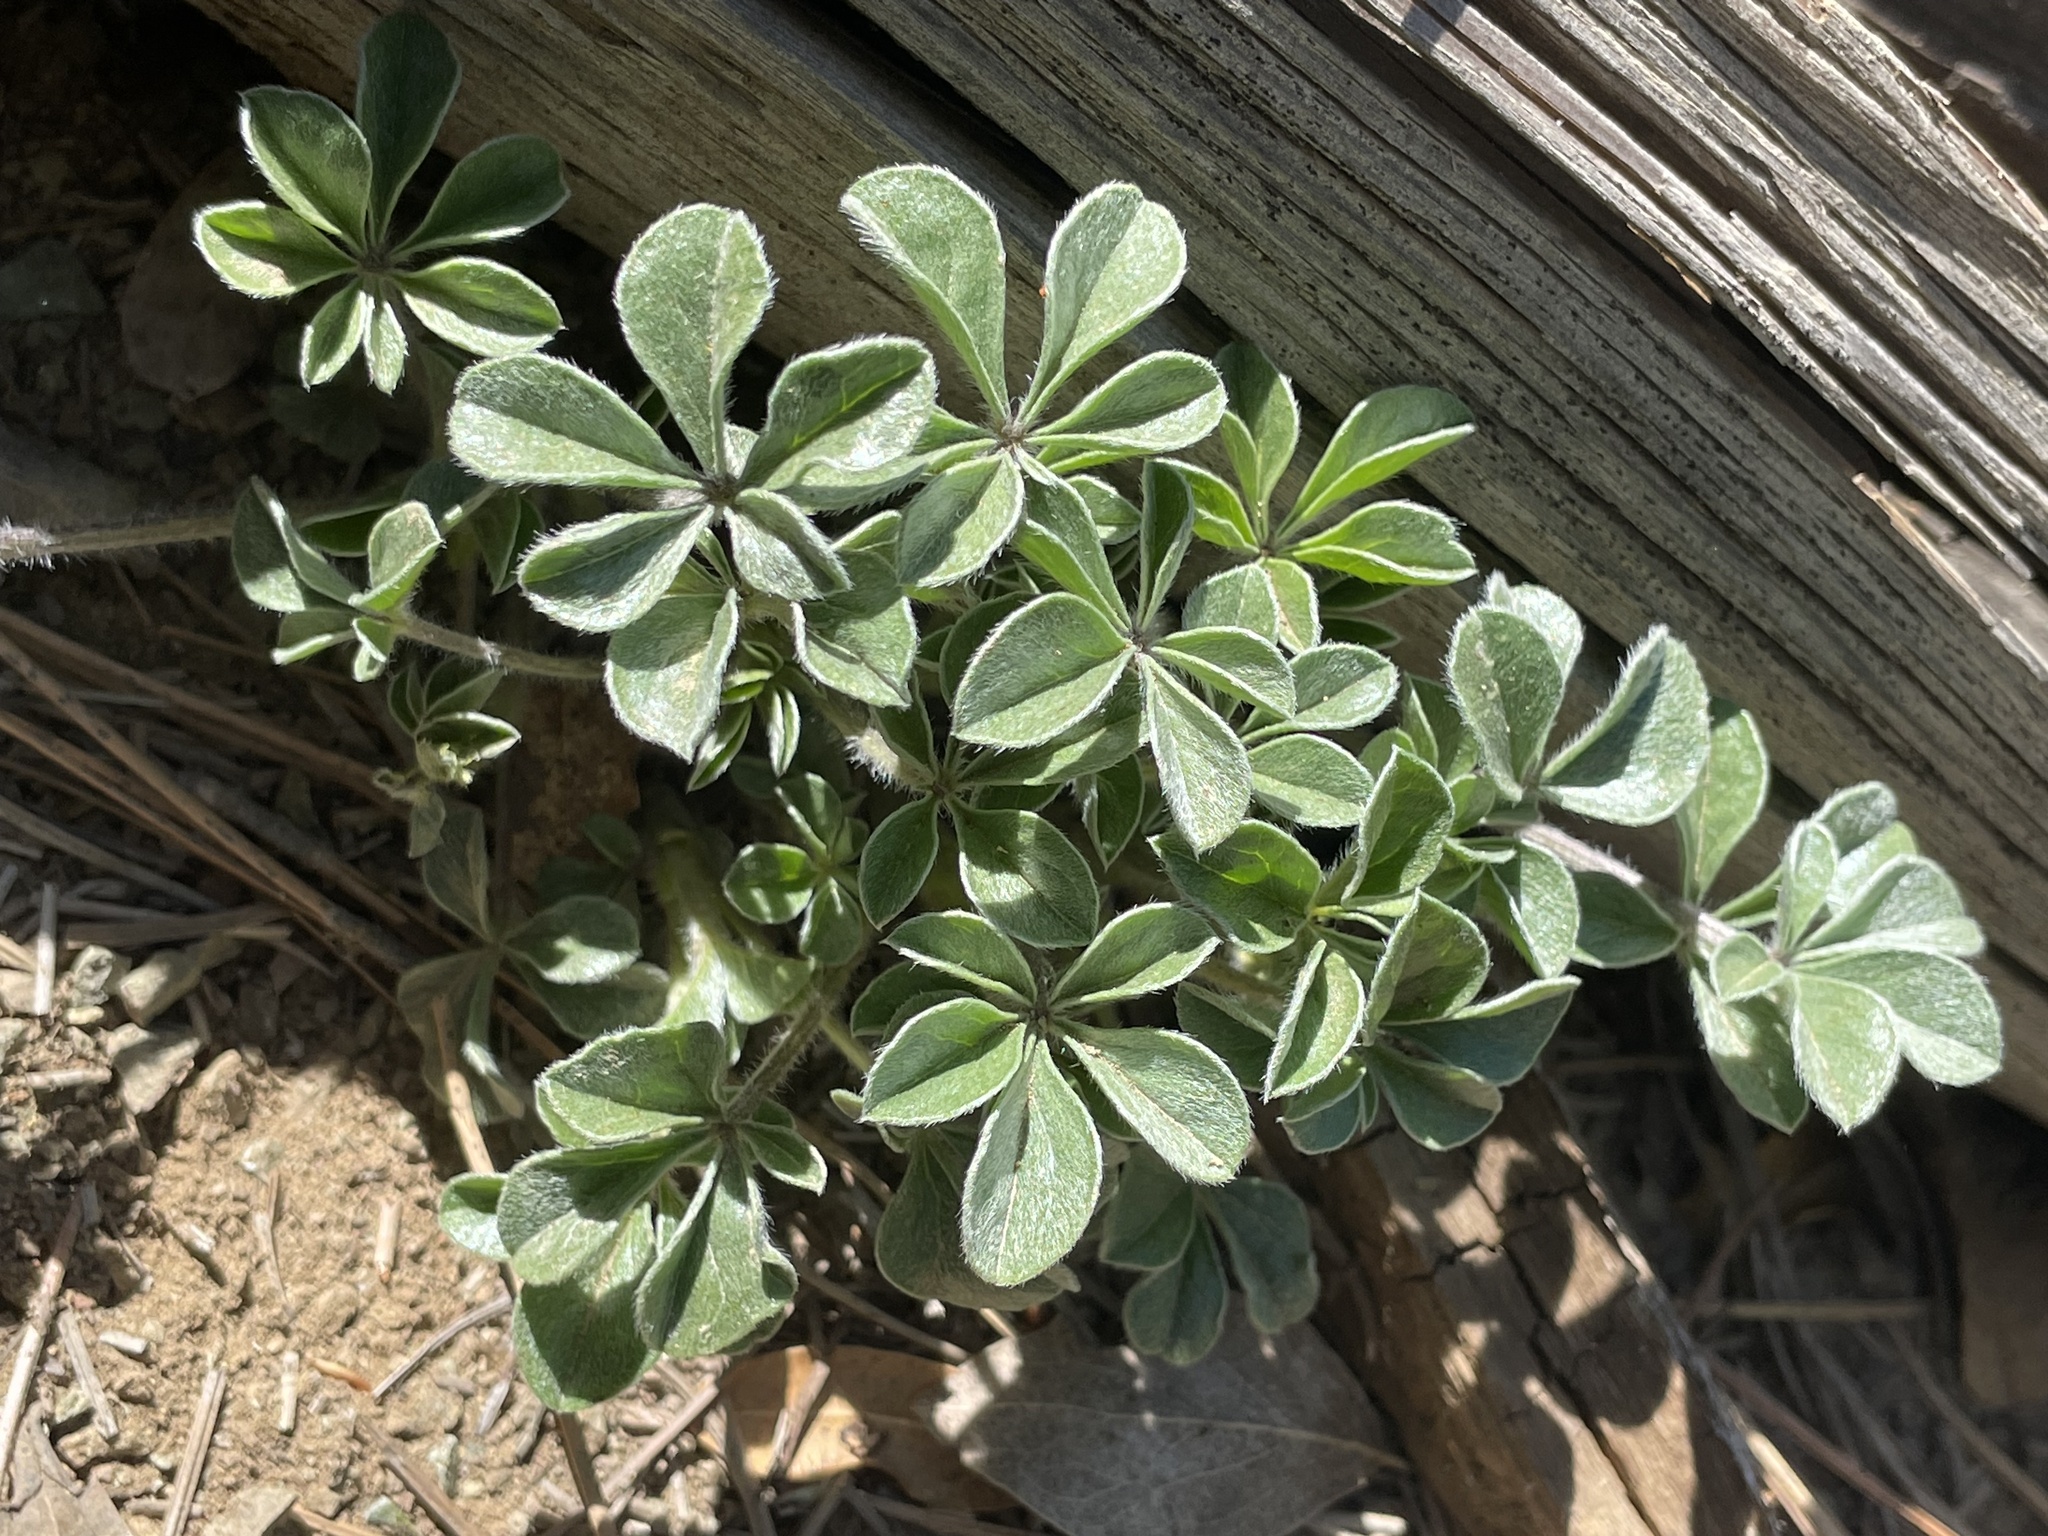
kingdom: Plantae
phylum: Tracheophyta
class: Magnoliopsida
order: Fabales
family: Fabaceae
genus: Pediomelum
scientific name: Pediomelum californicum
